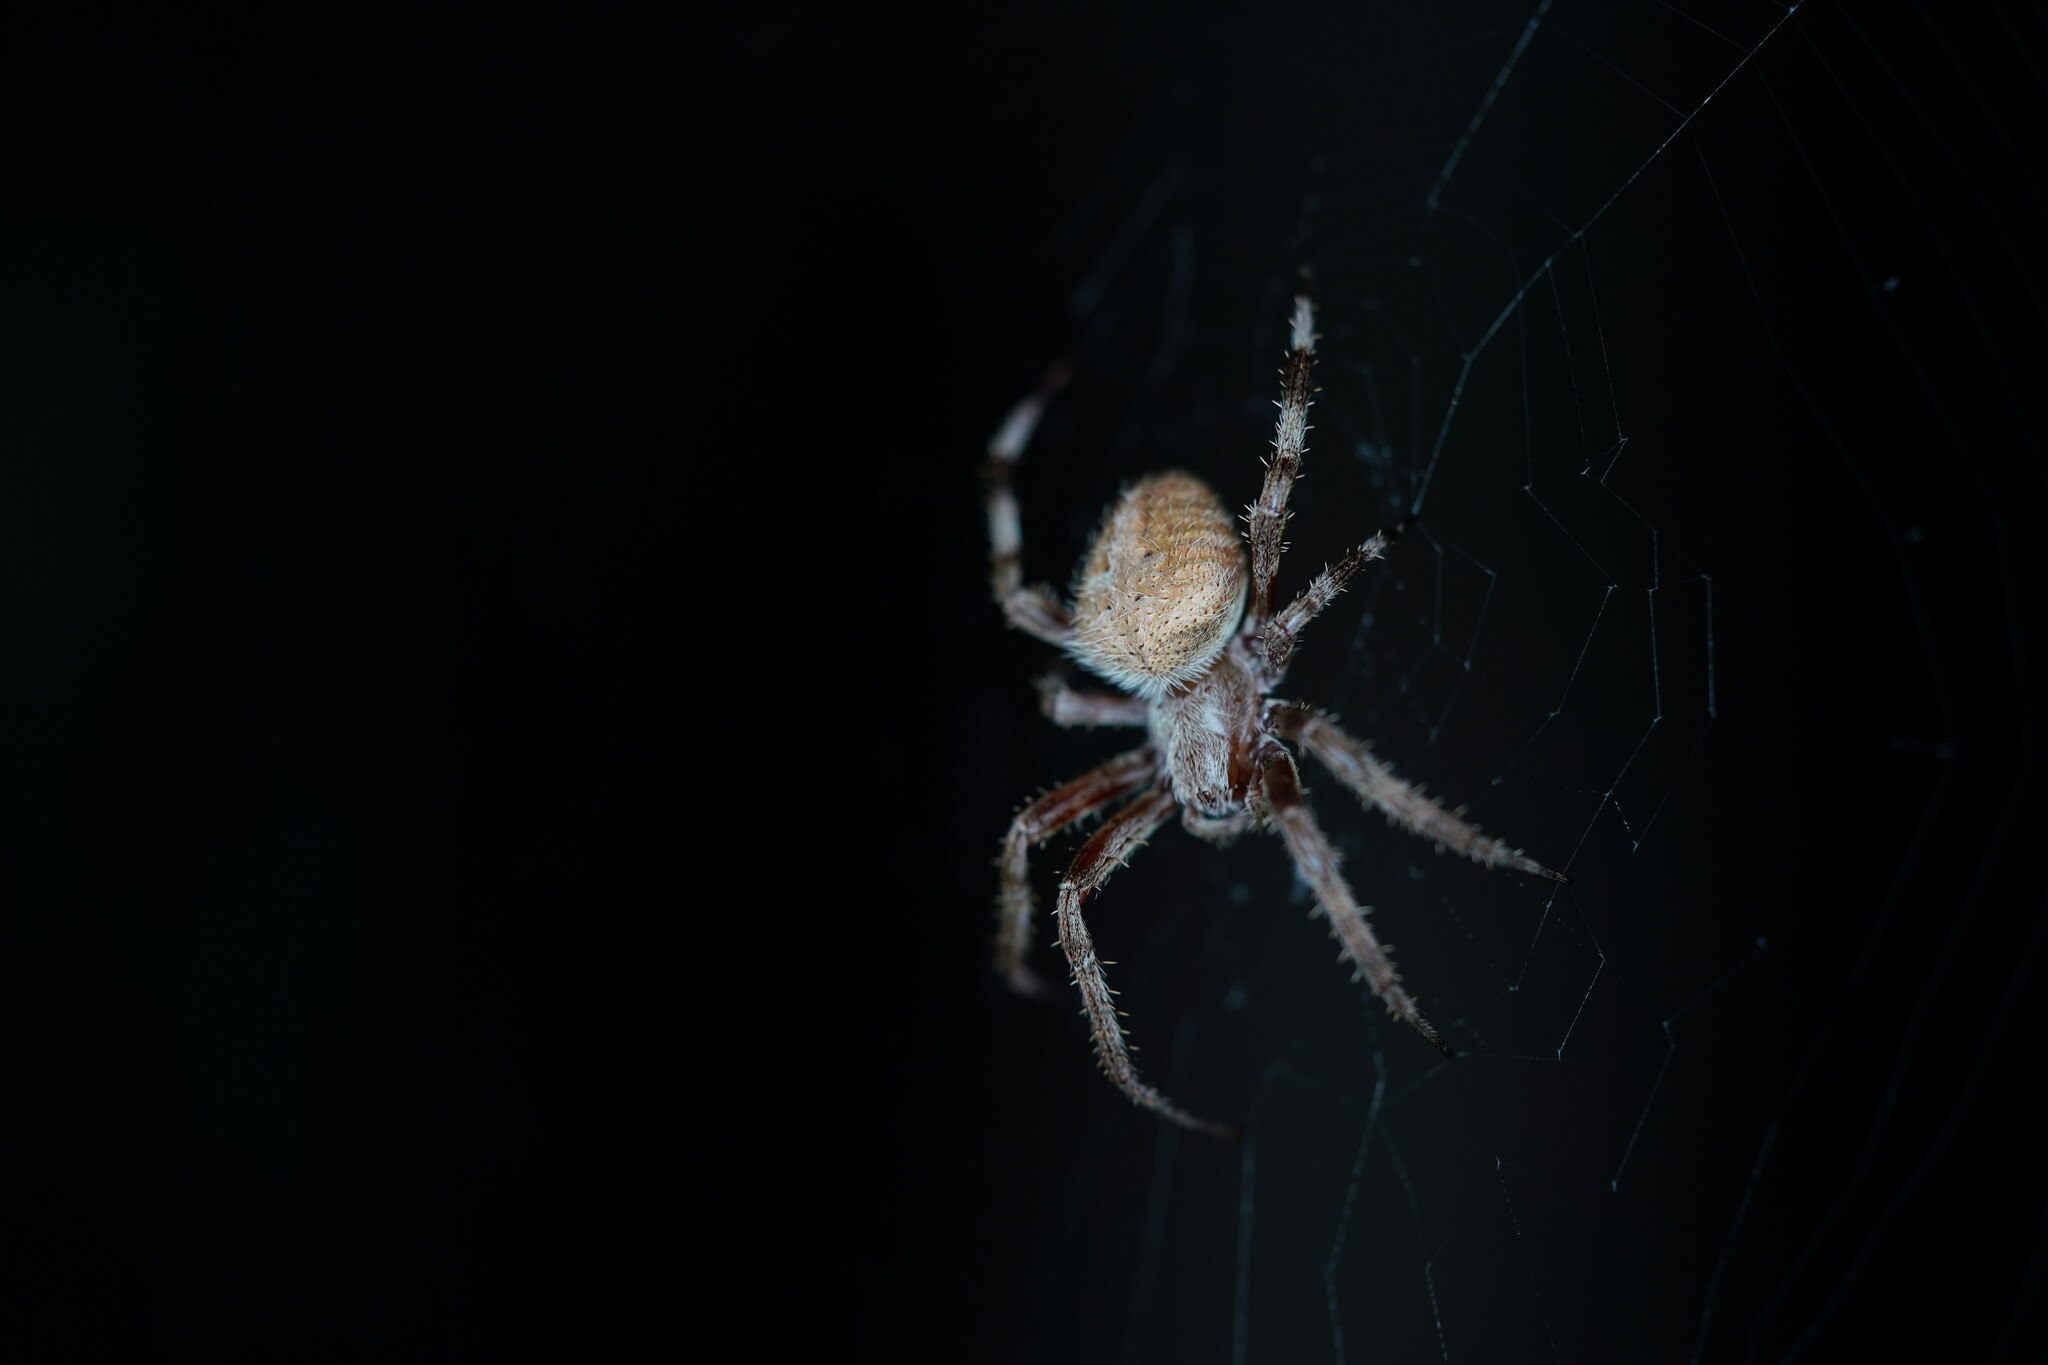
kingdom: Animalia
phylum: Arthropoda
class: Arachnida
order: Araneae
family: Araneidae
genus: Neoscona
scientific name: Neoscona crucifera
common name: Spotted orbweaver
